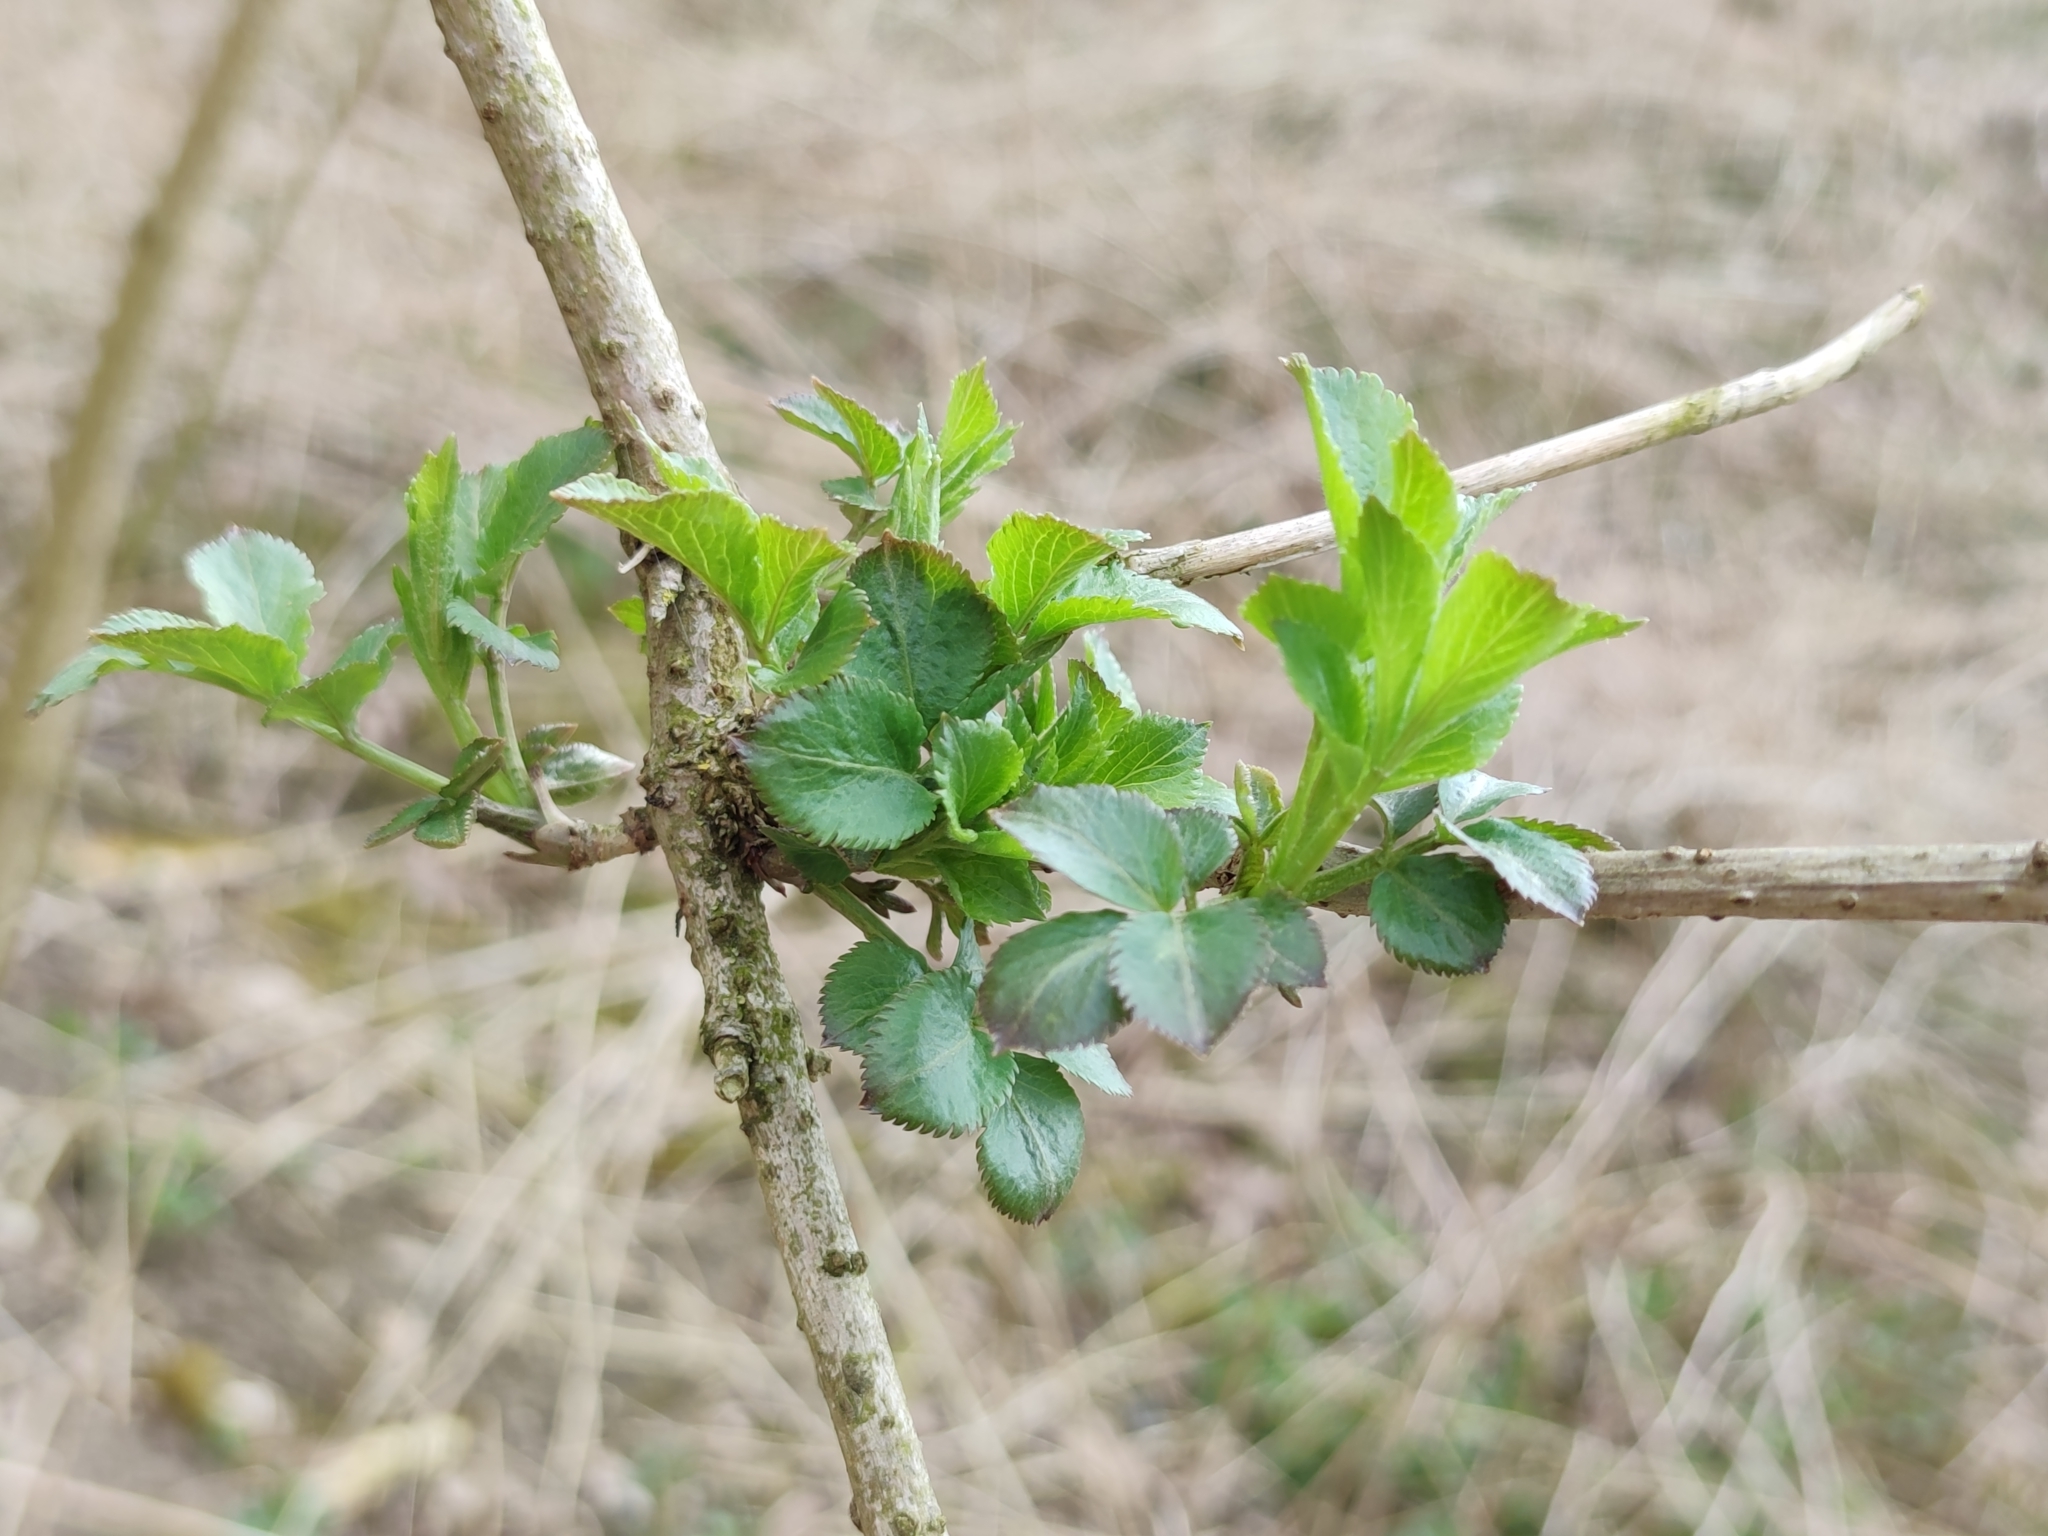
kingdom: Plantae
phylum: Tracheophyta
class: Magnoliopsida
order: Dipsacales
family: Viburnaceae
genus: Sambucus
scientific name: Sambucus nigra
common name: Elder
